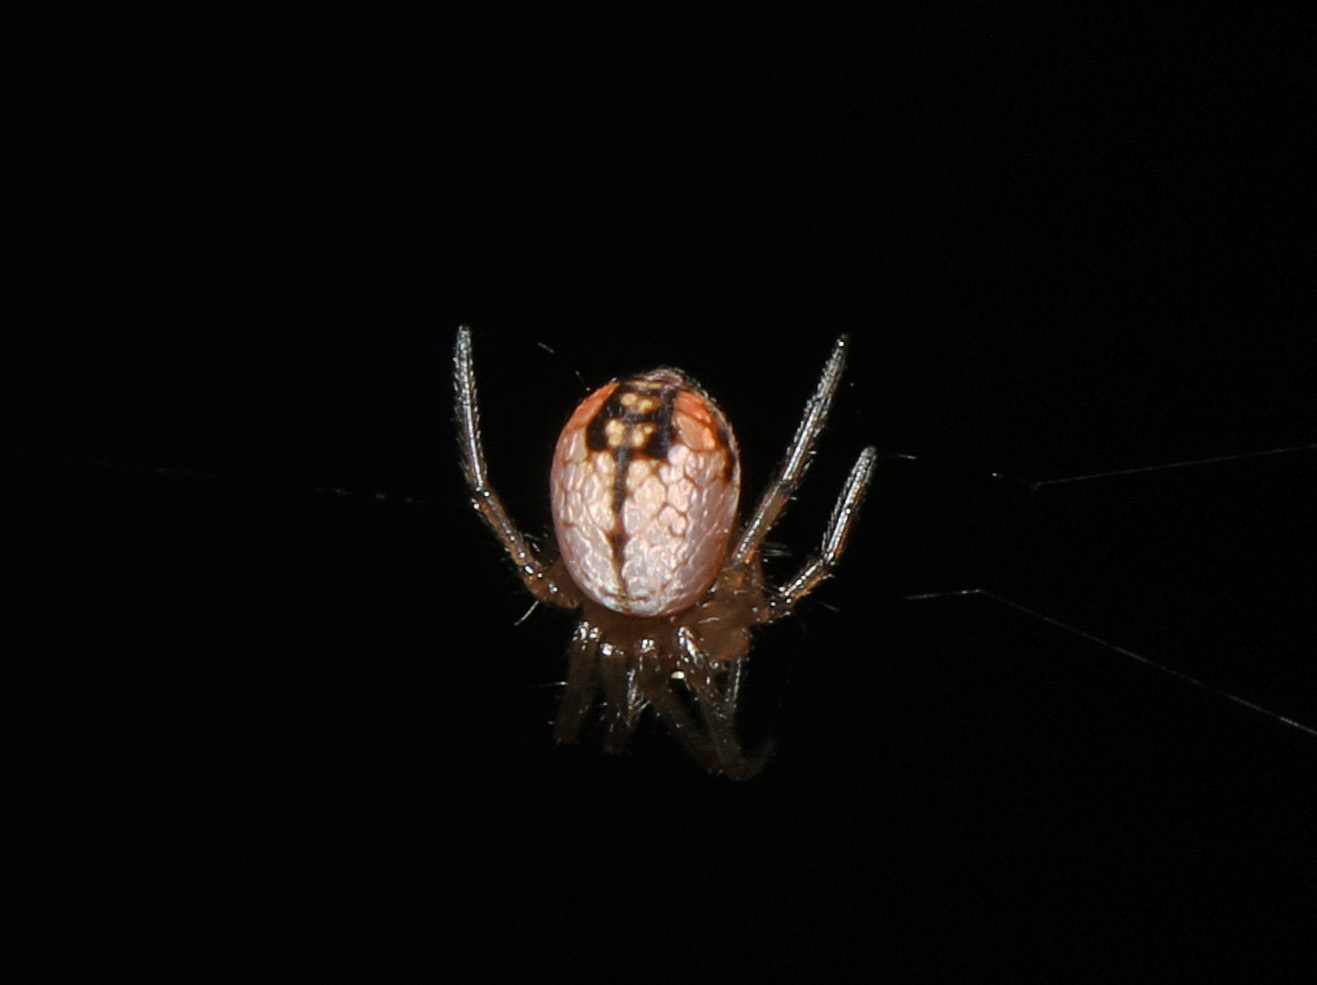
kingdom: Animalia
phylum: Arthropoda
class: Arachnida
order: Araneae
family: Tetragnathidae
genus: Leucauge
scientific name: Leucauge venusta
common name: Longjawed orb weavers
